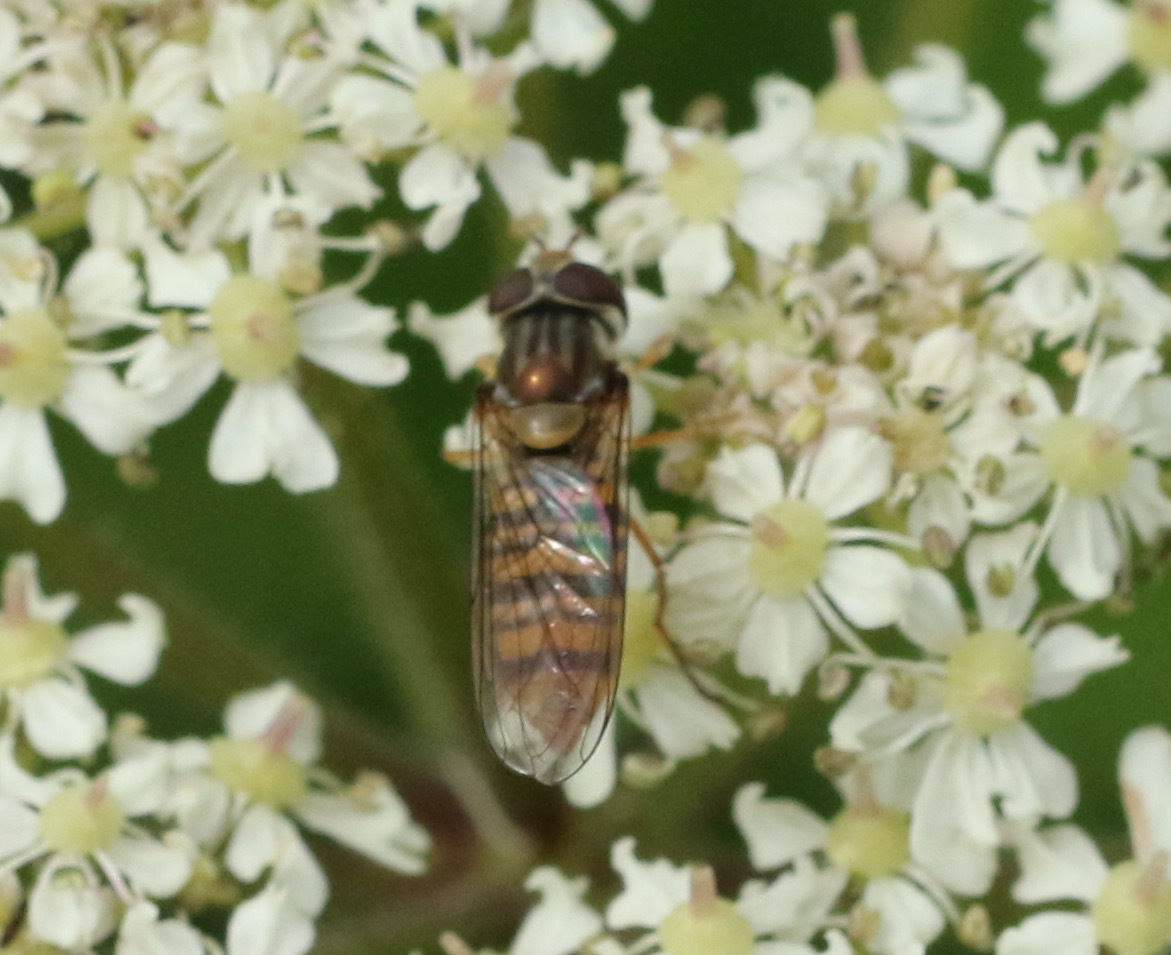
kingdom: Animalia
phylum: Arthropoda
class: Insecta
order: Diptera
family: Syrphidae
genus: Episyrphus
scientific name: Episyrphus balteatus
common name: Marmalade hoverfly
